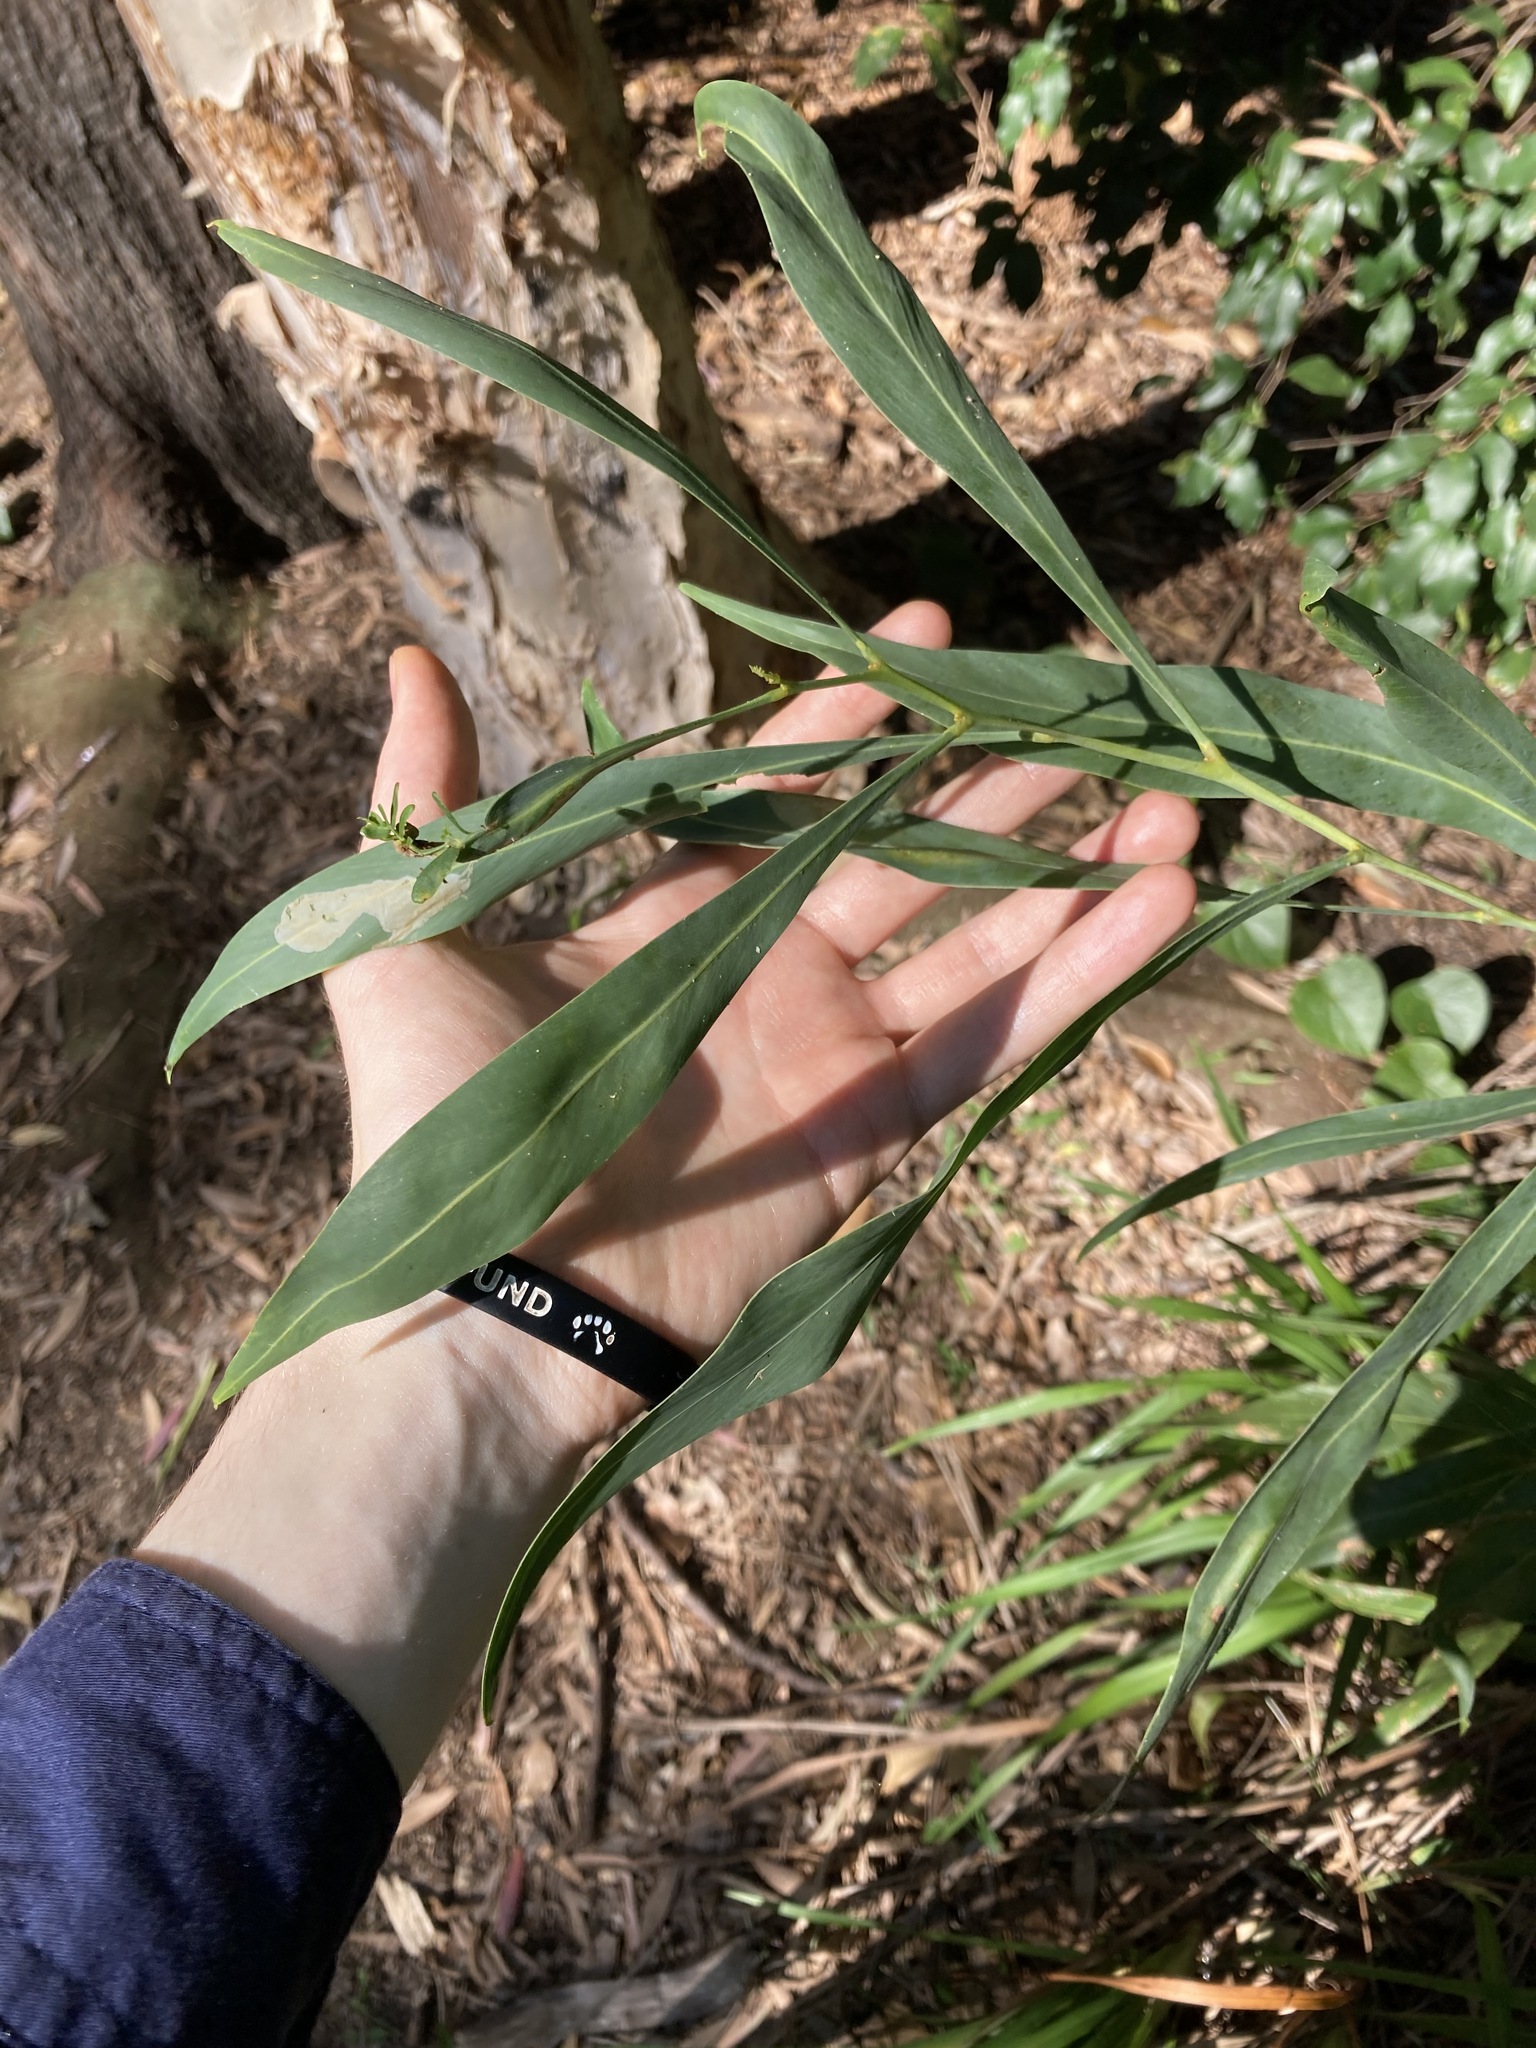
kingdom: Plantae
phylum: Tracheophyta
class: Magnoliopsida
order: Fabales
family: Fabaceae
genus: Acacia
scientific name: Acacia saligna
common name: Orange wattle
